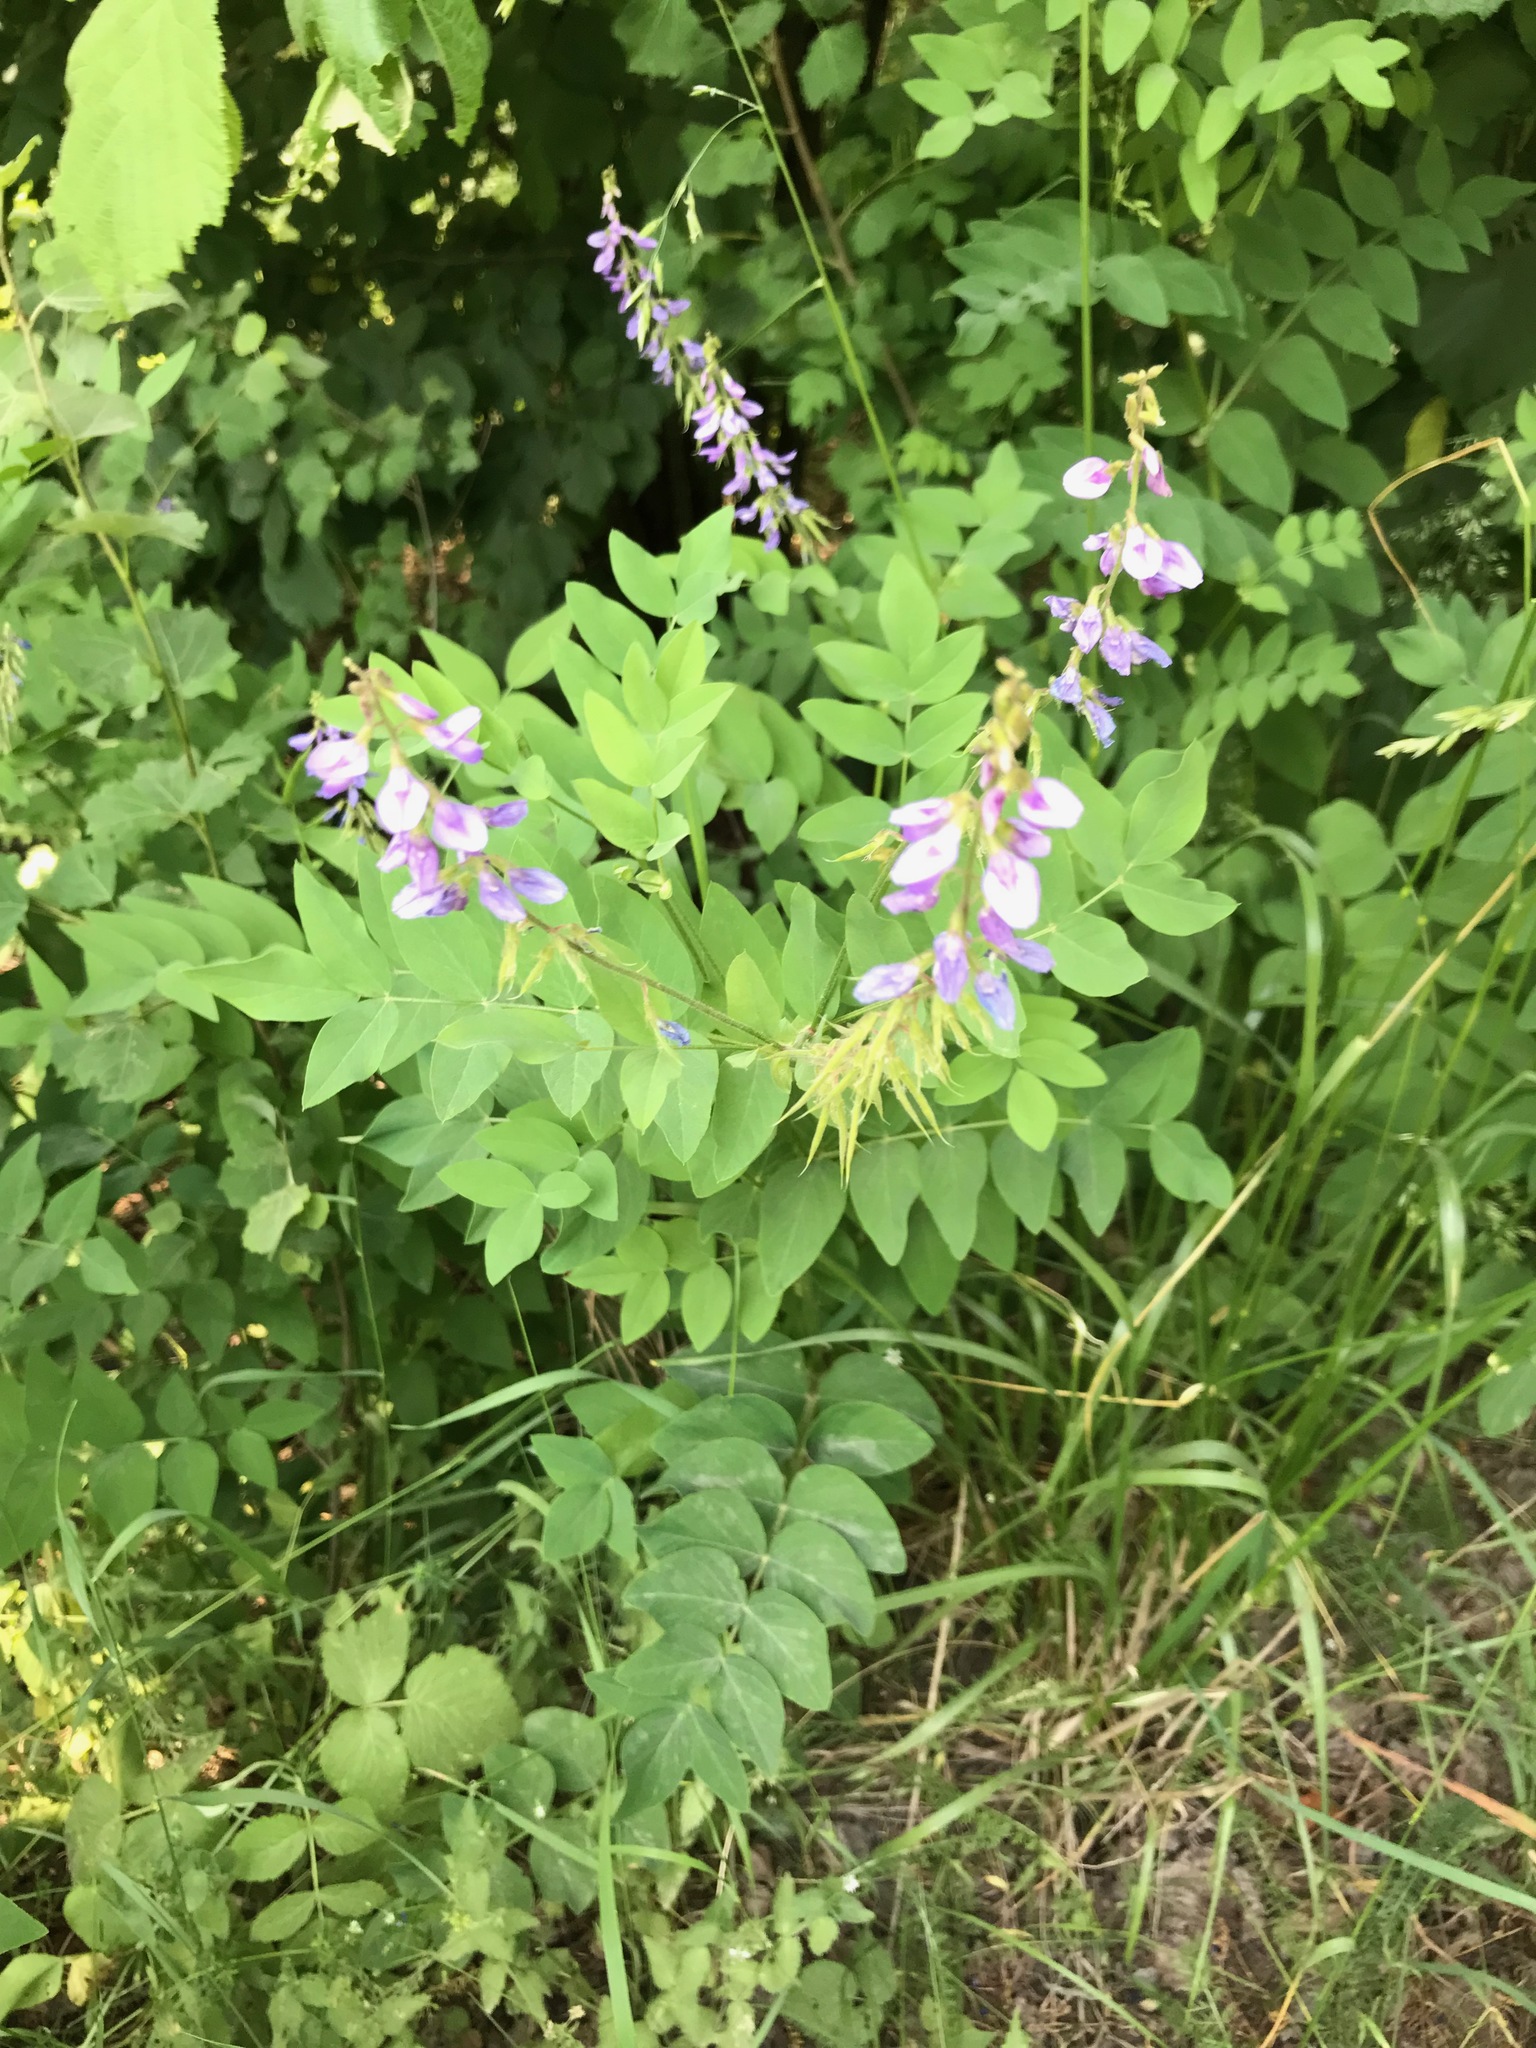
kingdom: Plantae
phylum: Tracheophyta
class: Magnoliopsida
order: Fabales
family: Fabaceae
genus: Galega
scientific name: Galega orientalis
